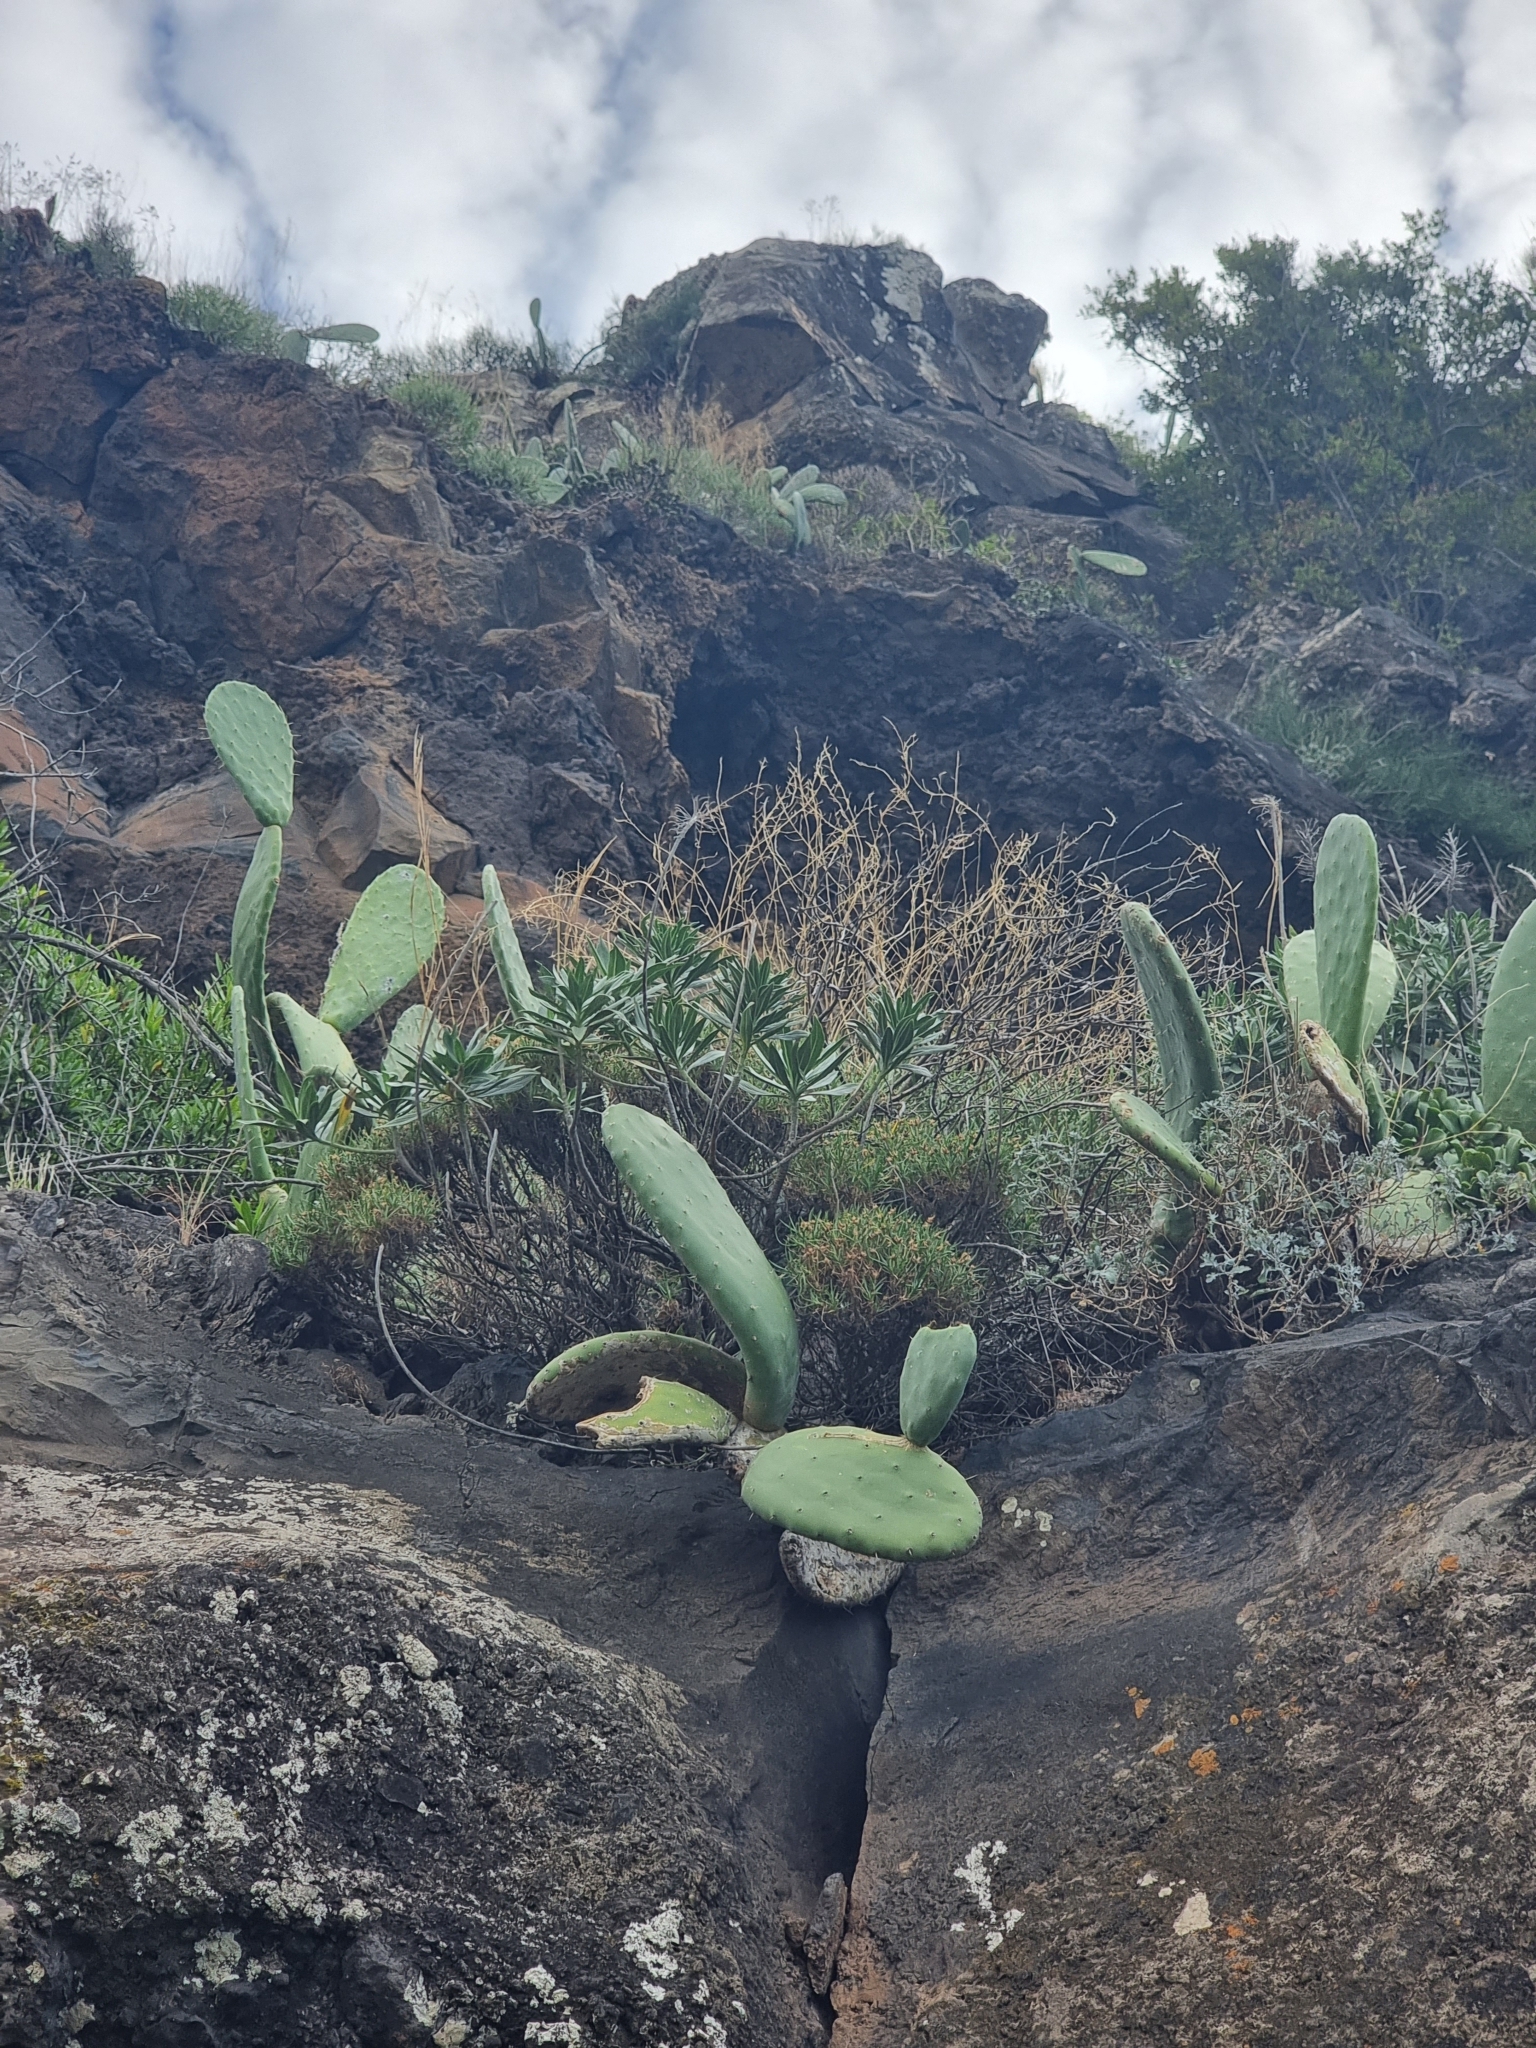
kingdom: Plantae
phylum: Tracheophyta
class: Magnoliopsida
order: Lamiales
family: Plantaginaceae
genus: Plantago
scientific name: Plantago arborescens
